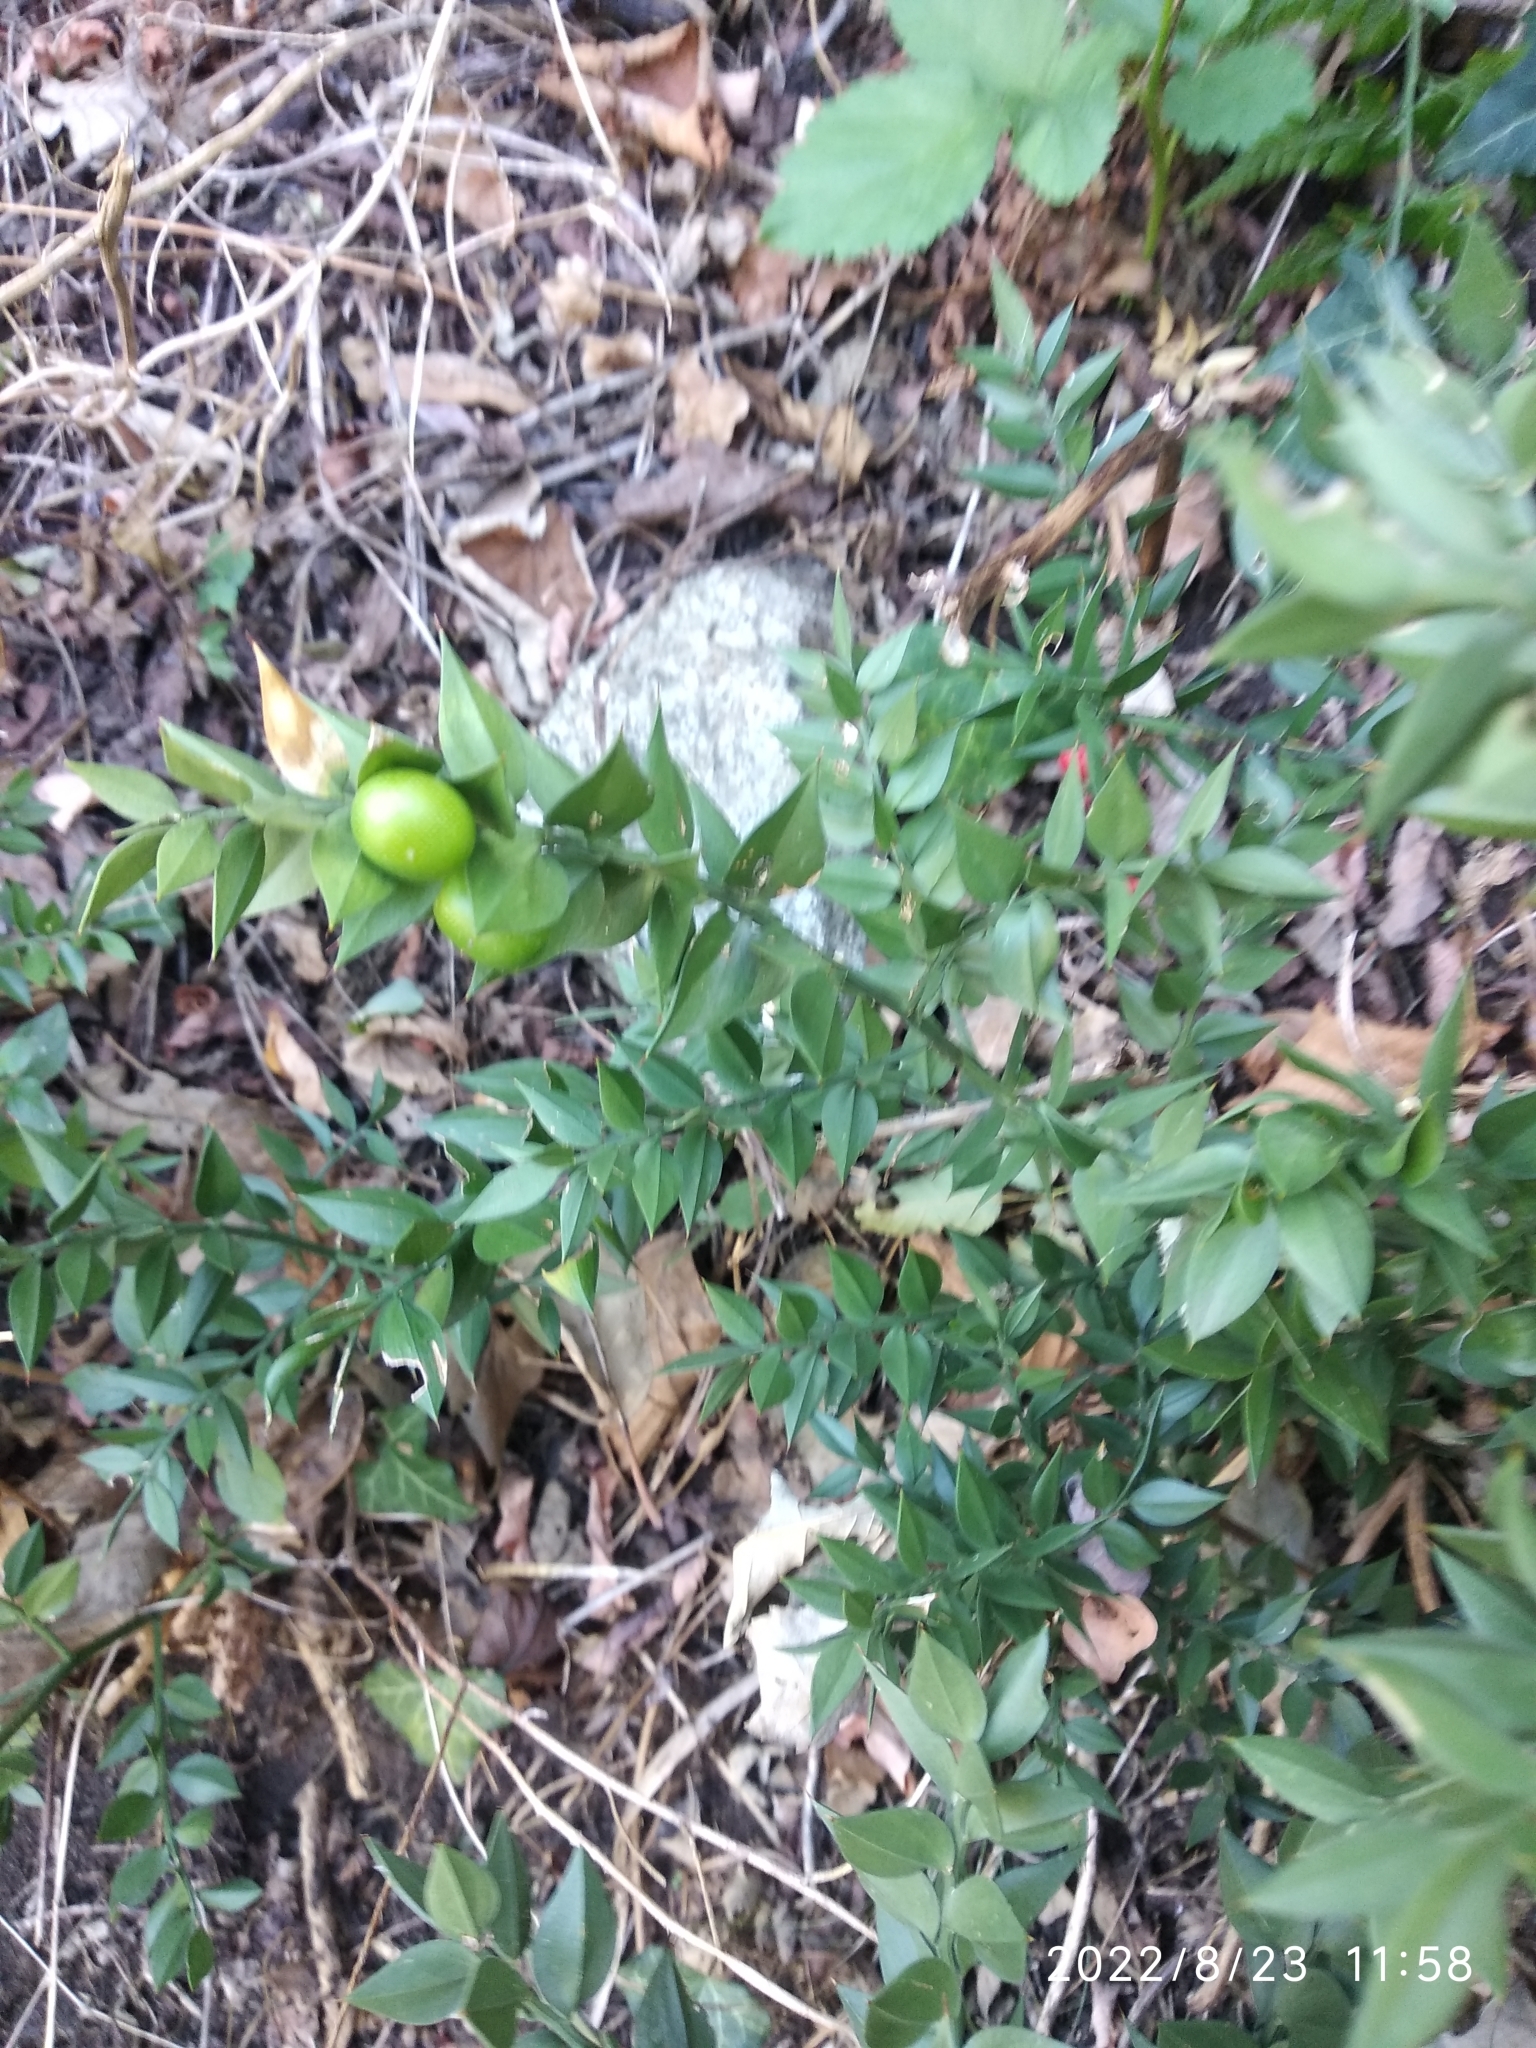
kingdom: Plantae
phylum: Tracheophyta
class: Liliopsida
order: Asparagales
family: Asparagaceae
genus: Ruscus
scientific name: Ruscus aculeatus
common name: Butcher's-broom
